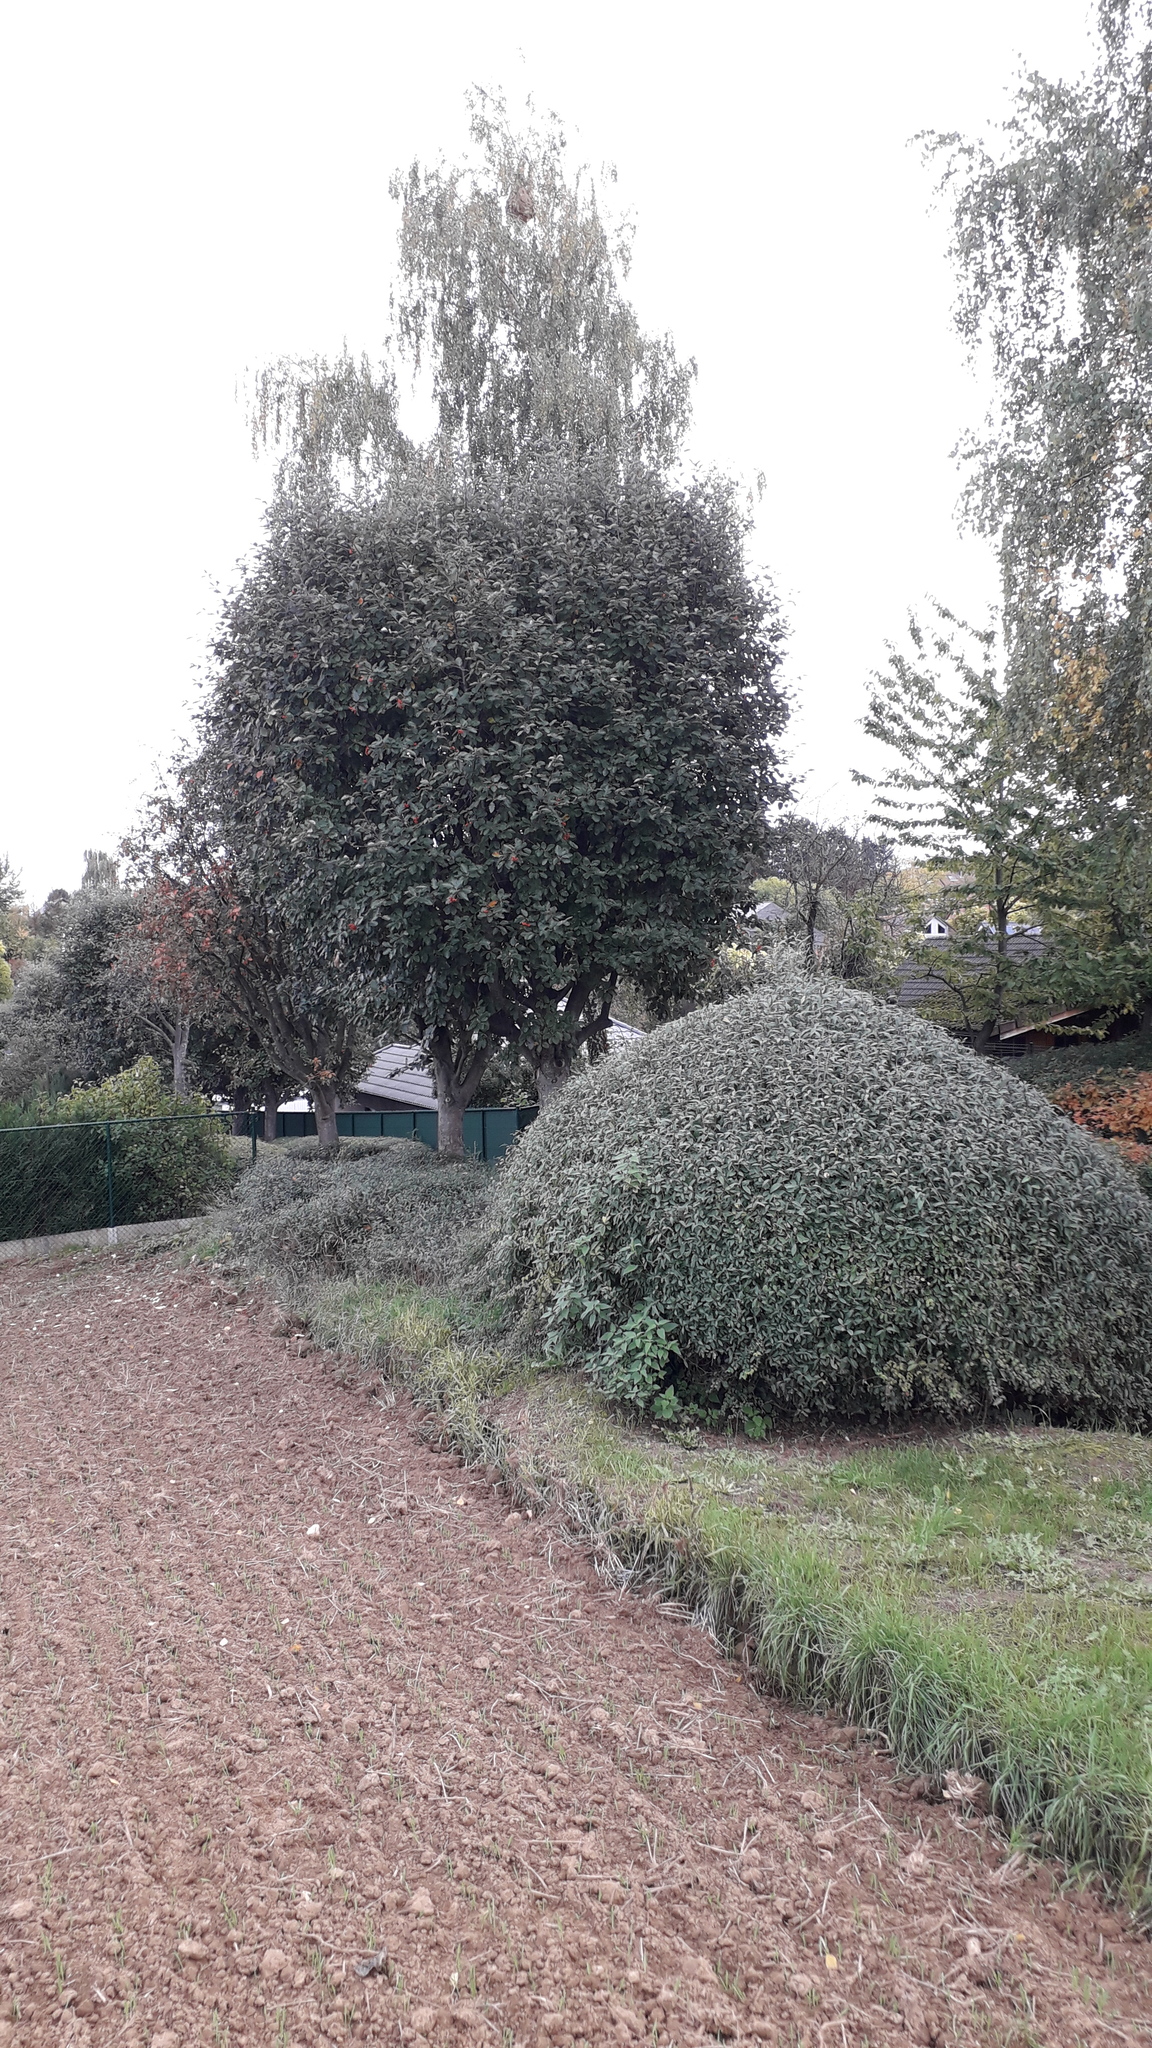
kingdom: Animalia
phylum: Arthropoda
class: Insecta
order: Hymenoptera
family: Vespidae
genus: Vespa
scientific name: Vespa velutina
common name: Asian hornet
